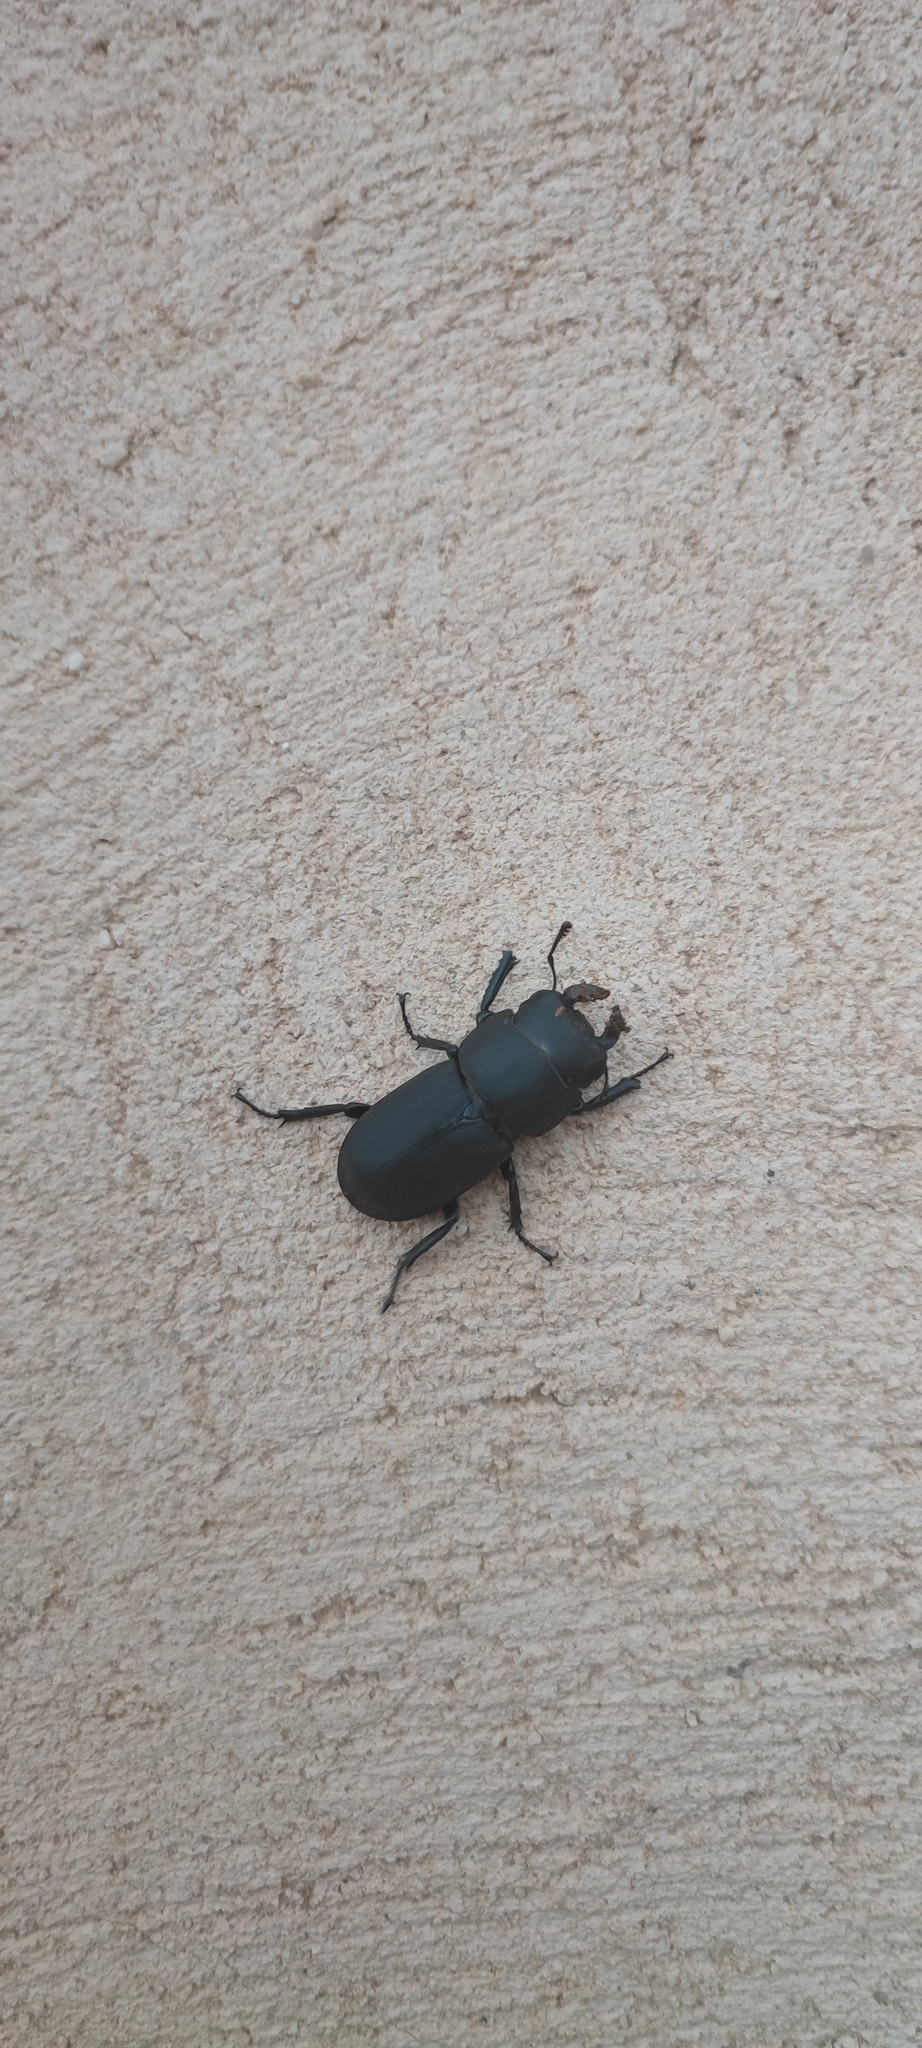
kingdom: Animalia
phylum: Arthropoda
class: Insecta
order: Coleoptera
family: Lucanidae
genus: Dorcus
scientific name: Dorcus parallelipipedus
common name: Lesser stag beetle
